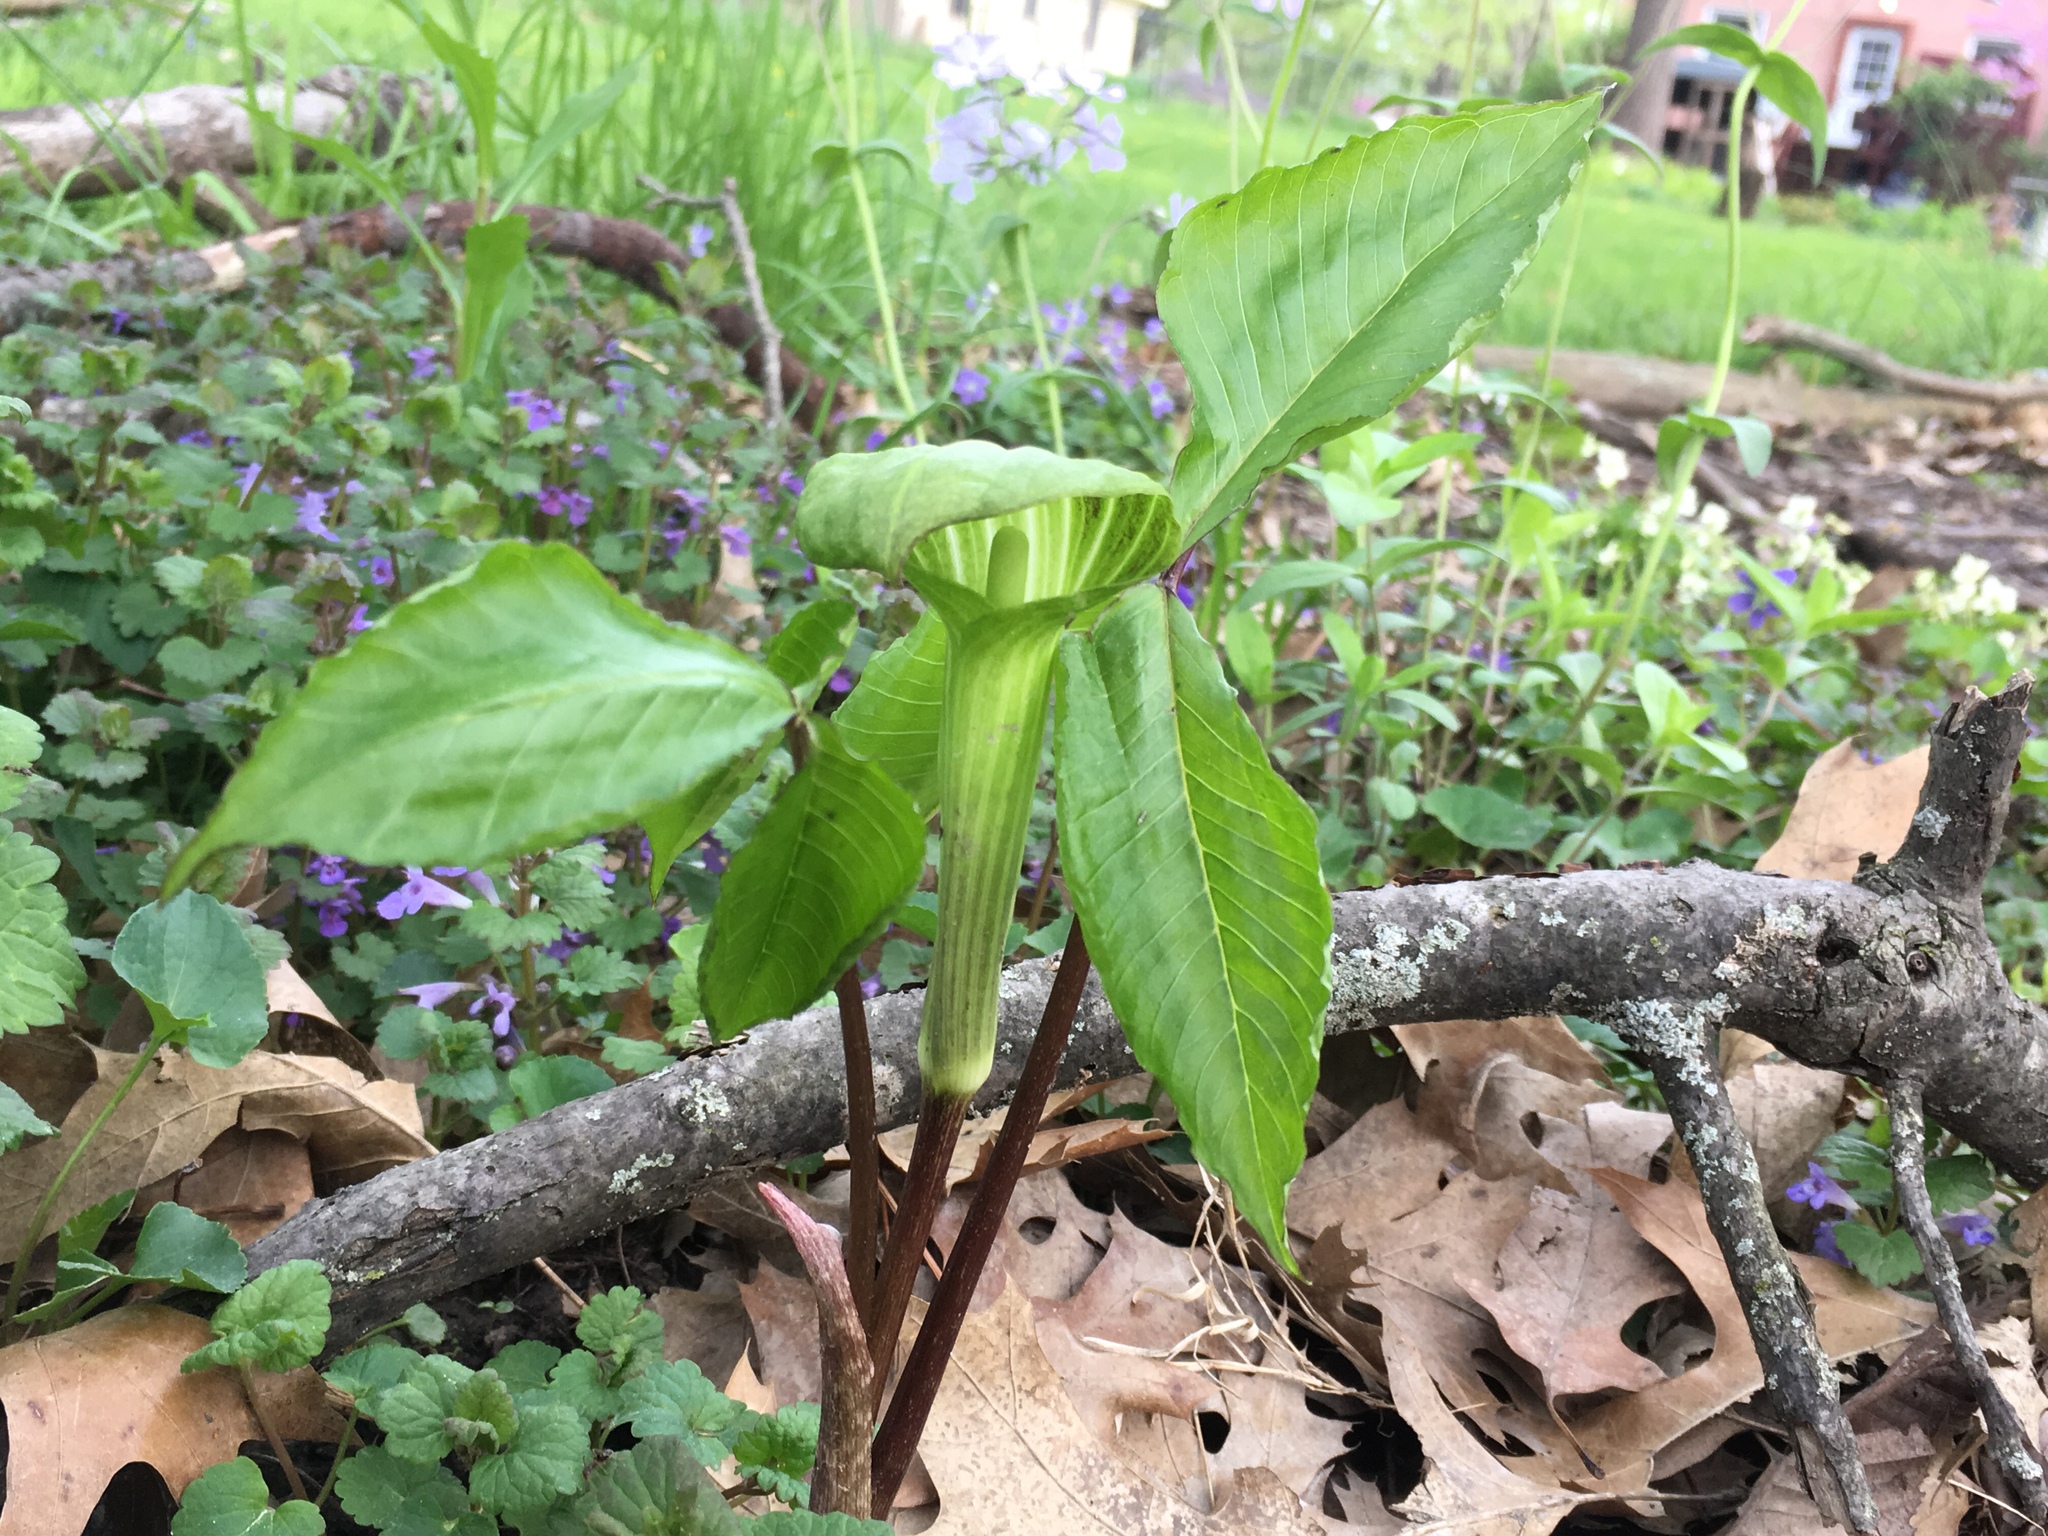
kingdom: Plantae
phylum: Tracheophyta
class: Liliopsida
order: Alismatales
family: Araceae
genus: Arisaema
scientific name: Arisaema triphyllum
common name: Jack-in-the-pulpit
